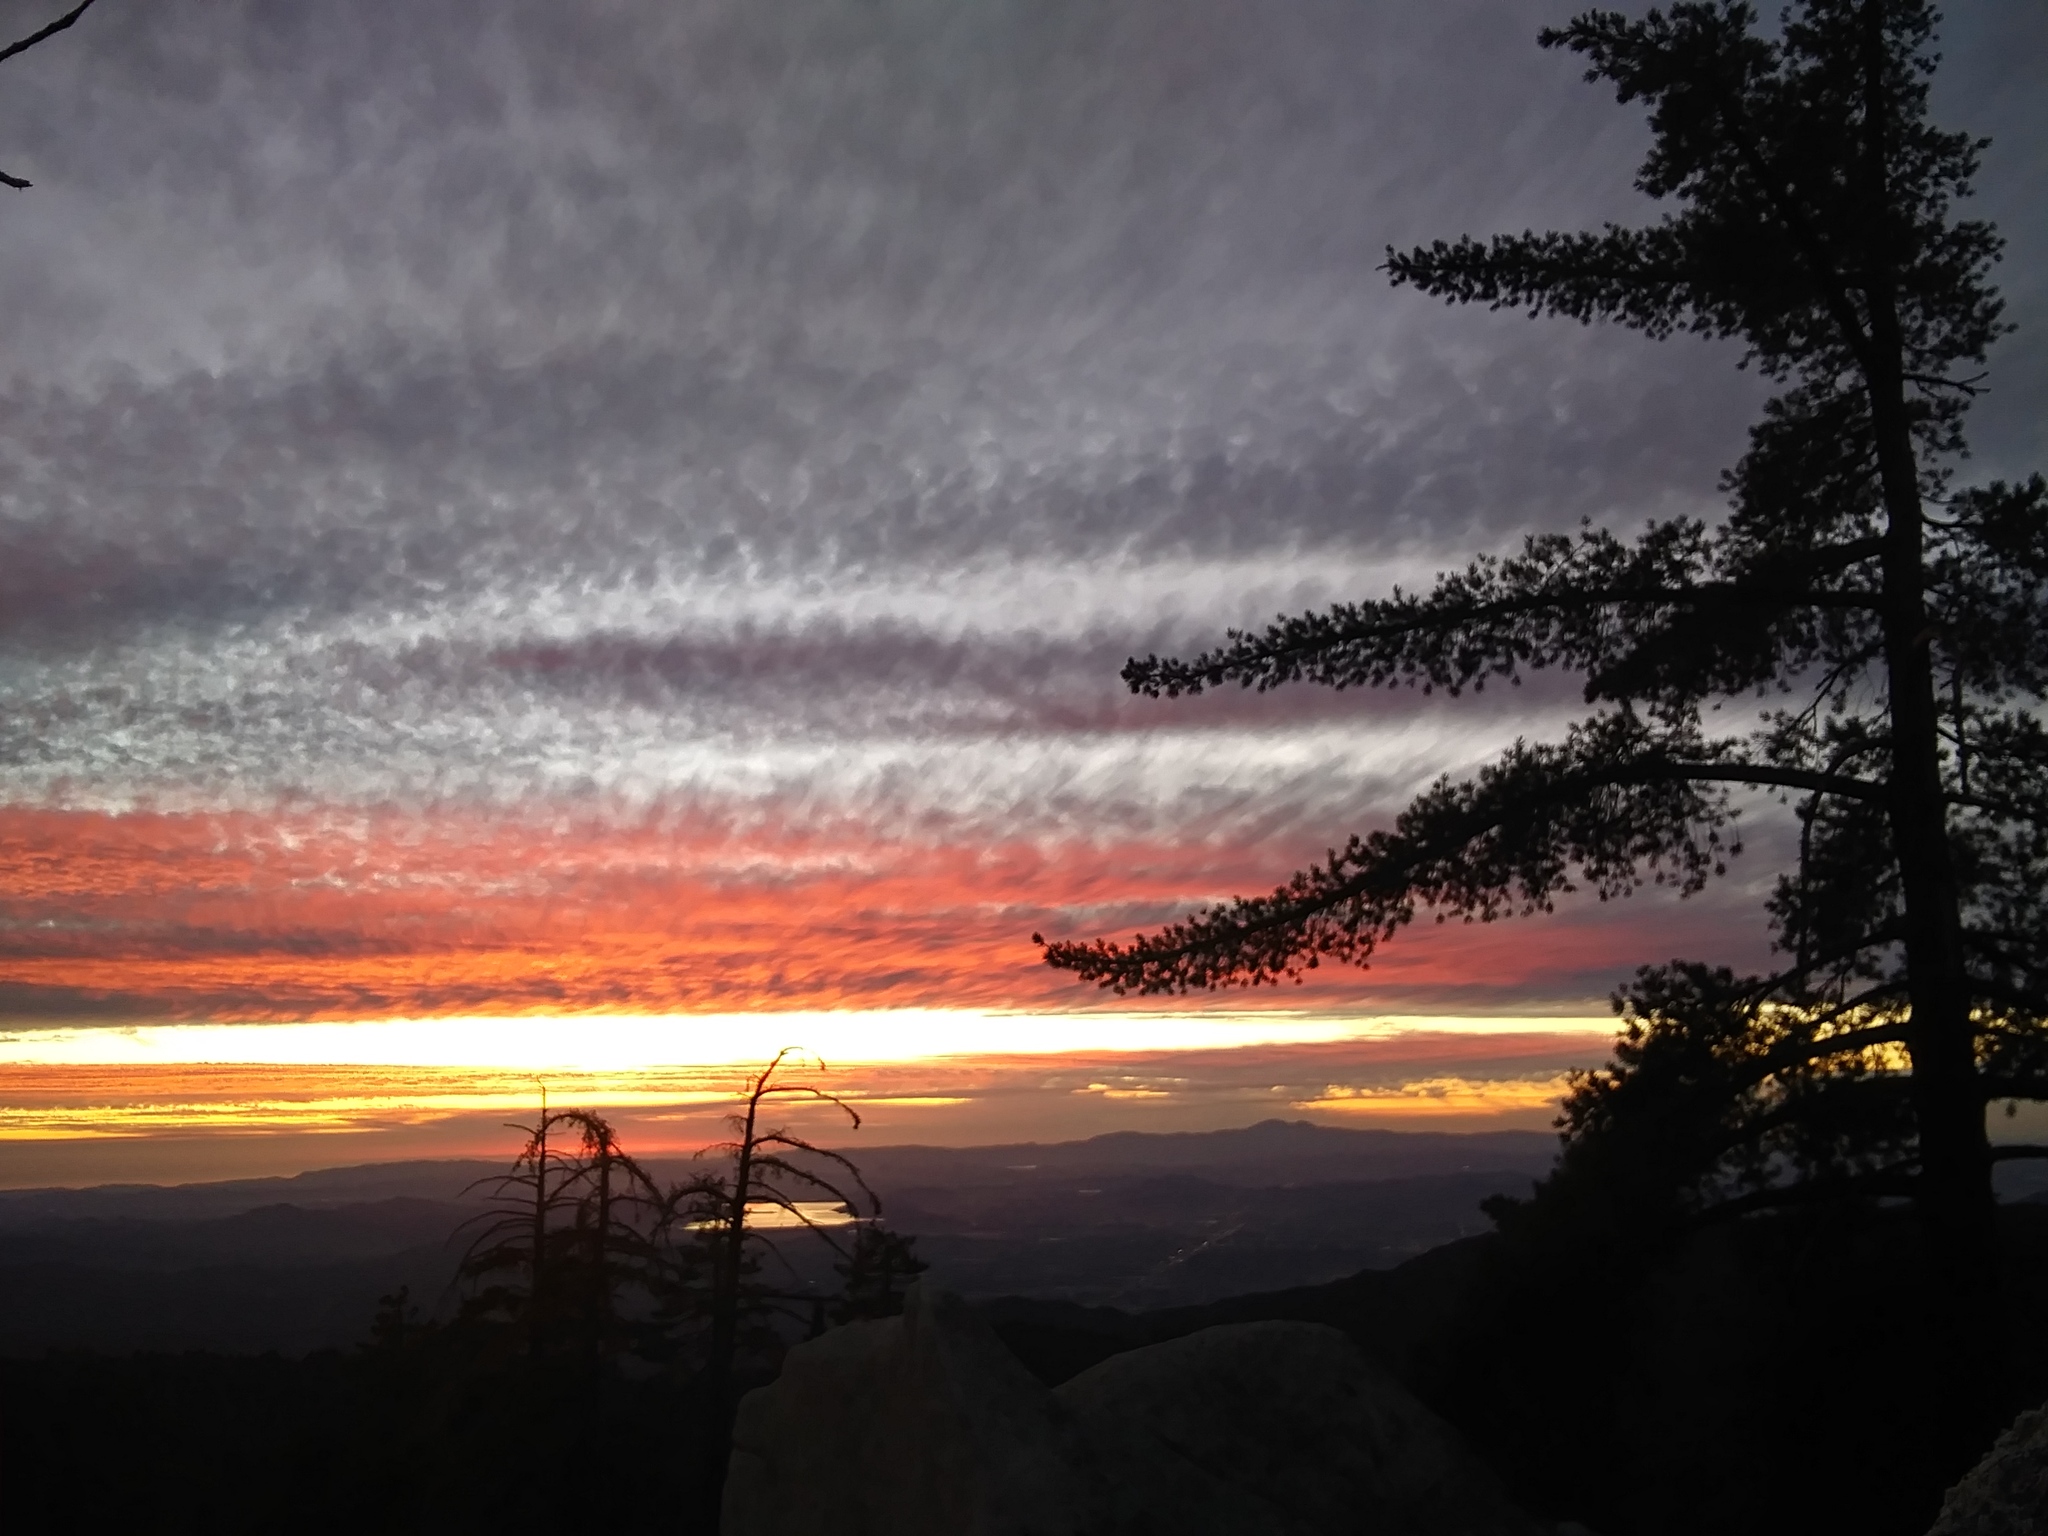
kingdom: Plantae
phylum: Tracheophyta
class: Pinopsida
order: Pinales
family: Pinaceae
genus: Pinus
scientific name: Pinus lambertiana
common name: Sugar pine
